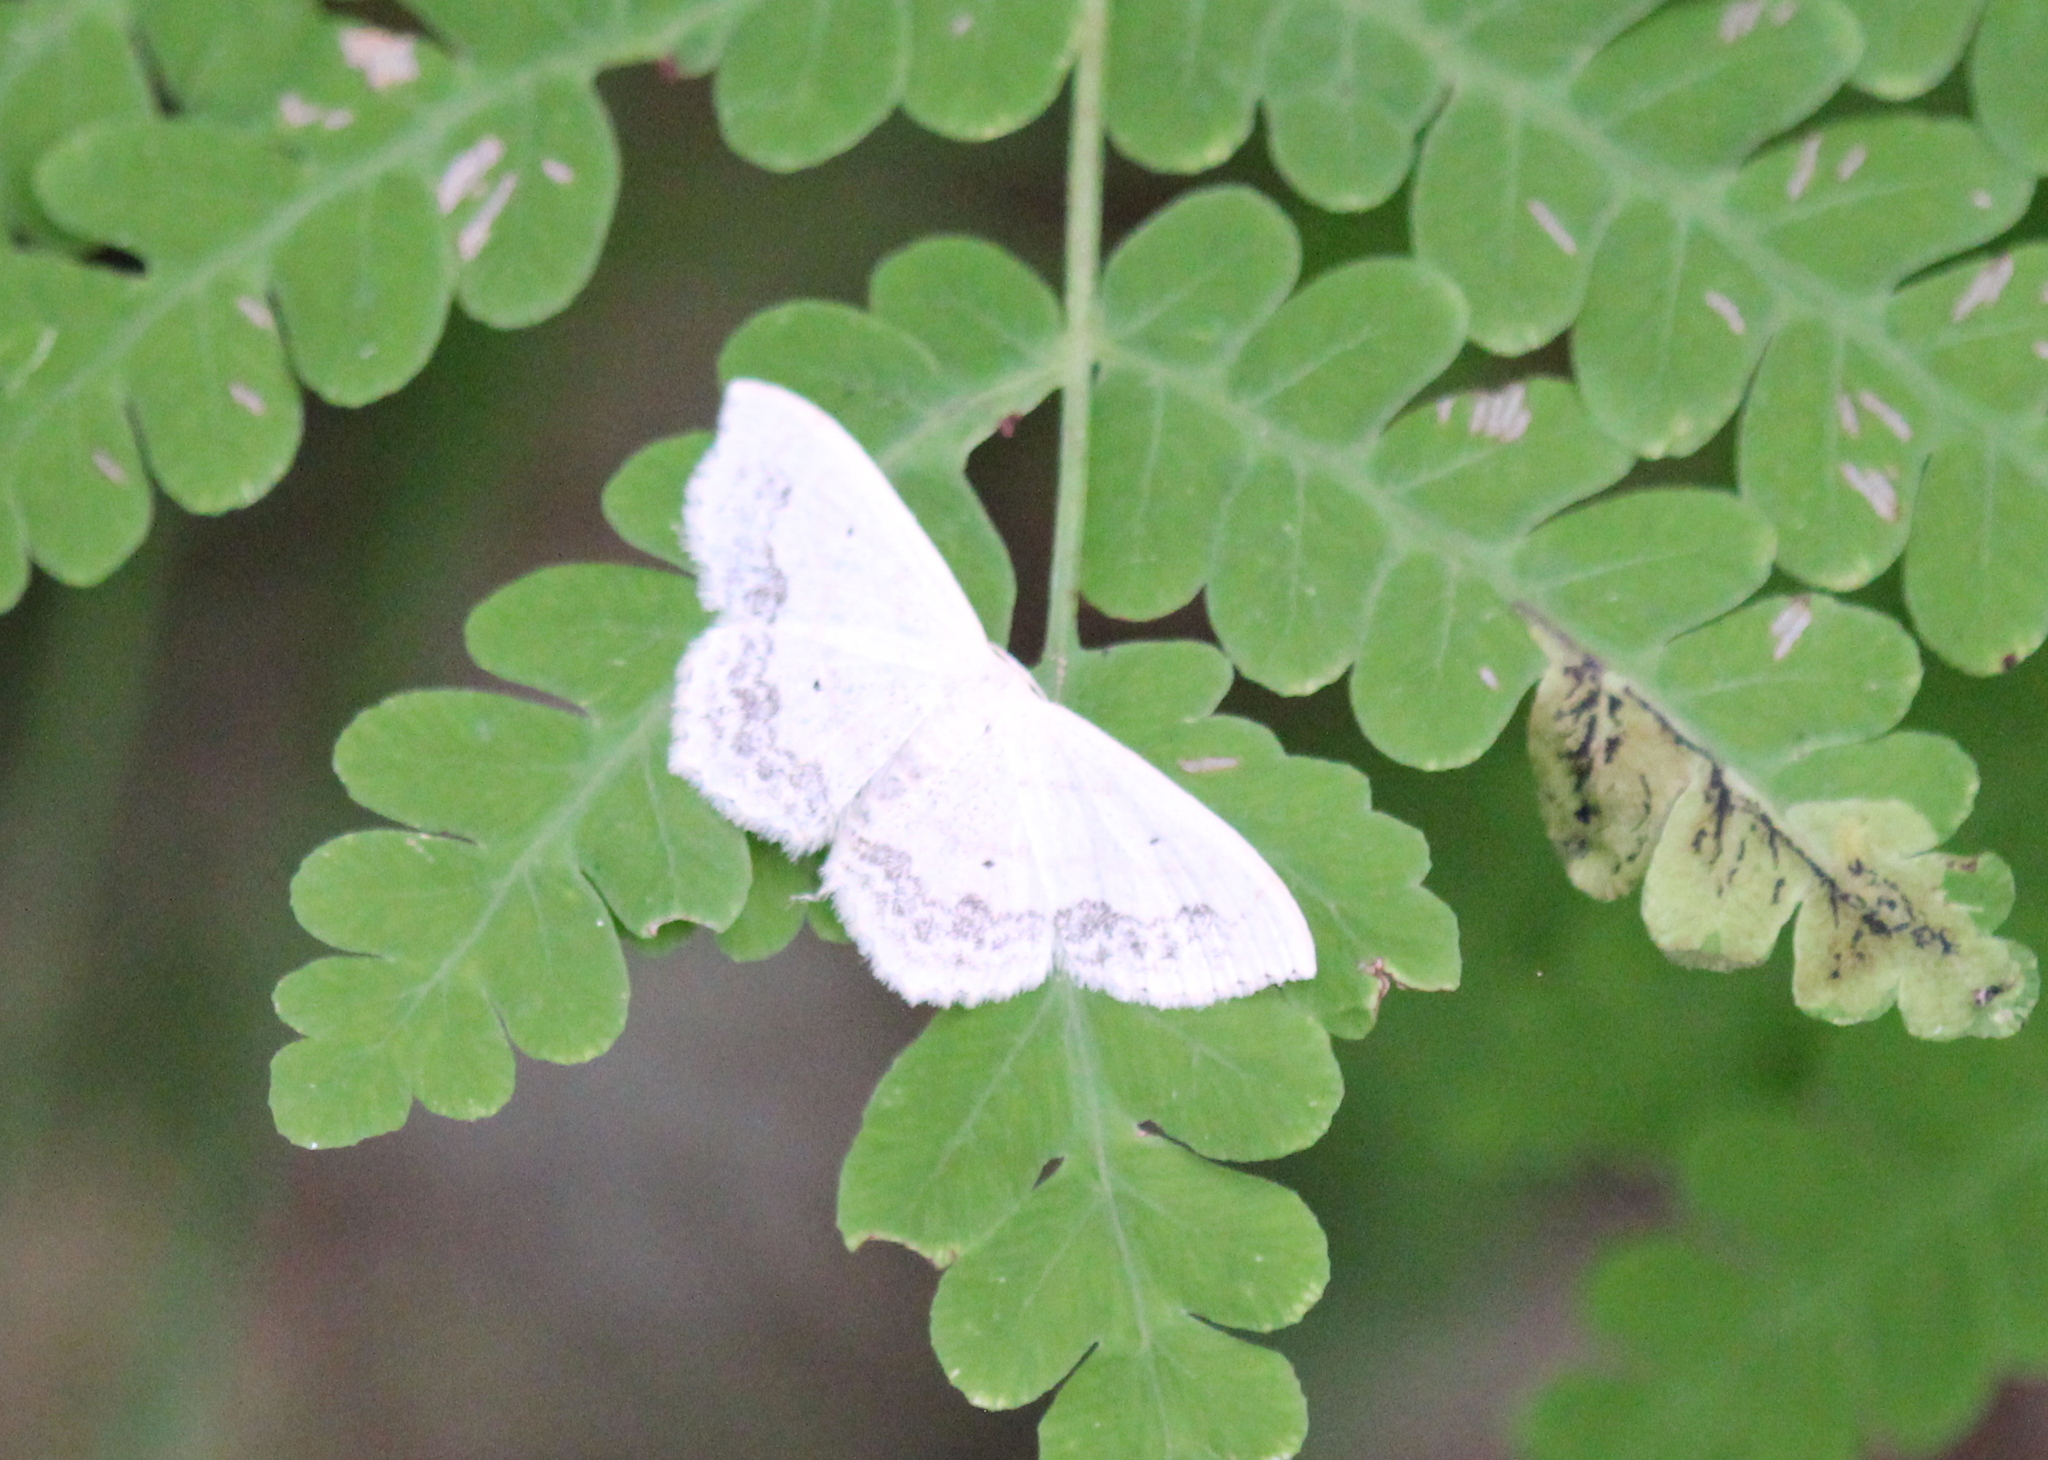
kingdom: Animalia
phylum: Arthropoda
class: Insecta
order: Lepidoptera
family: Geometridae
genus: Scopula
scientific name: Scopula limboundata
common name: Large lace border
